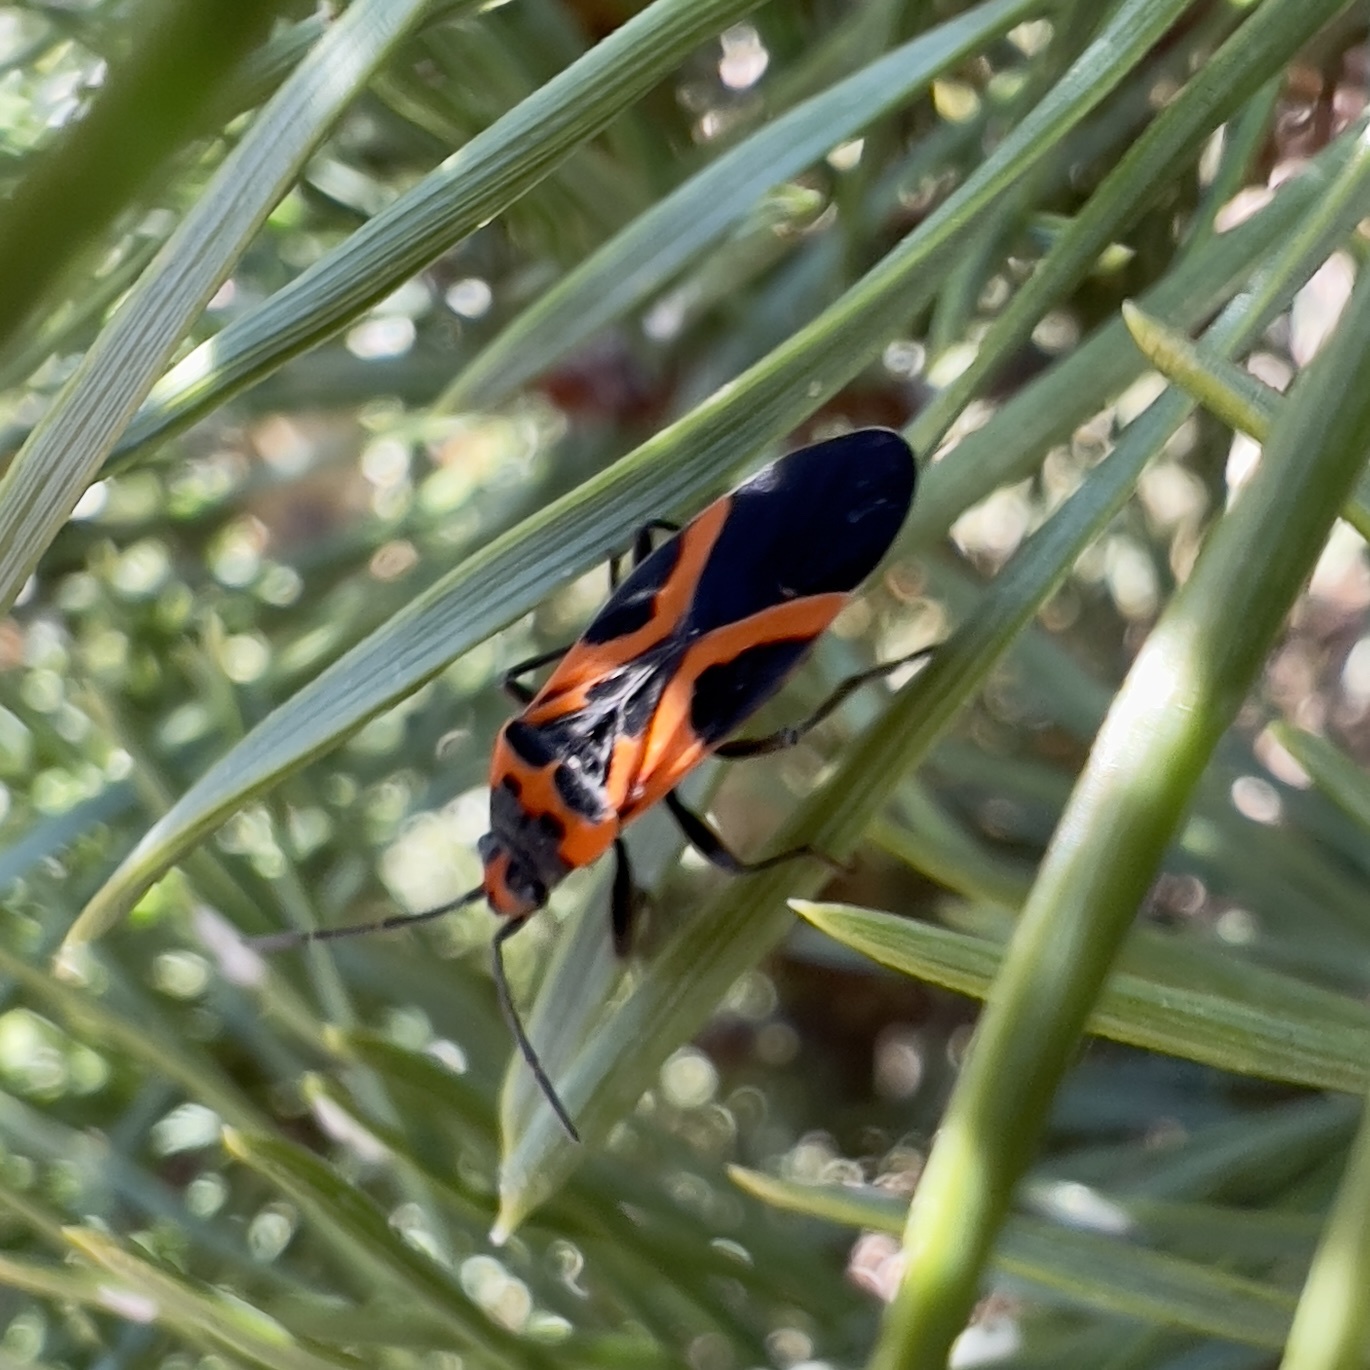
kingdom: Animalia
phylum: Arthropoda
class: Insecta
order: Hemiptera
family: Lygaeidae
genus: Lygaeus
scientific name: Lygaeus turcicus
